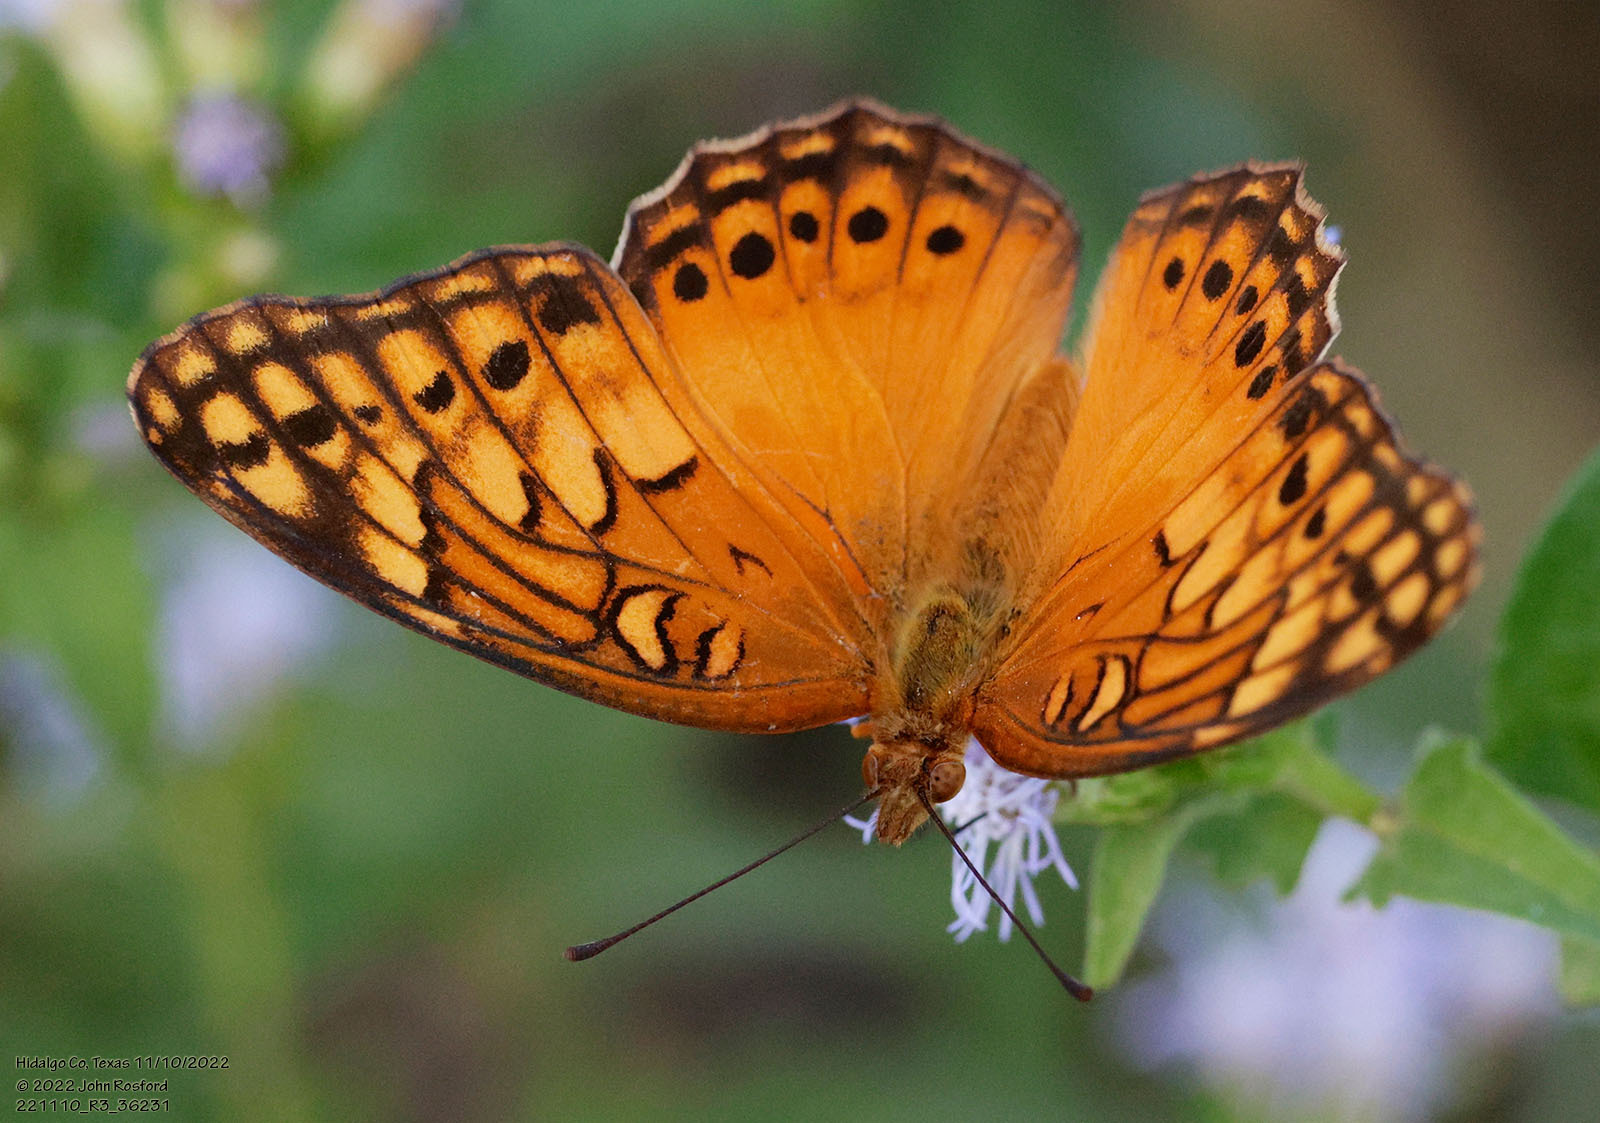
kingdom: Animalia
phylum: Arthropoda
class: Insecta
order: Lepidoptera
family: Nymphalidae
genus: Euptoieta
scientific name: Euptoieta hegesia
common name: Mexican fritillary
